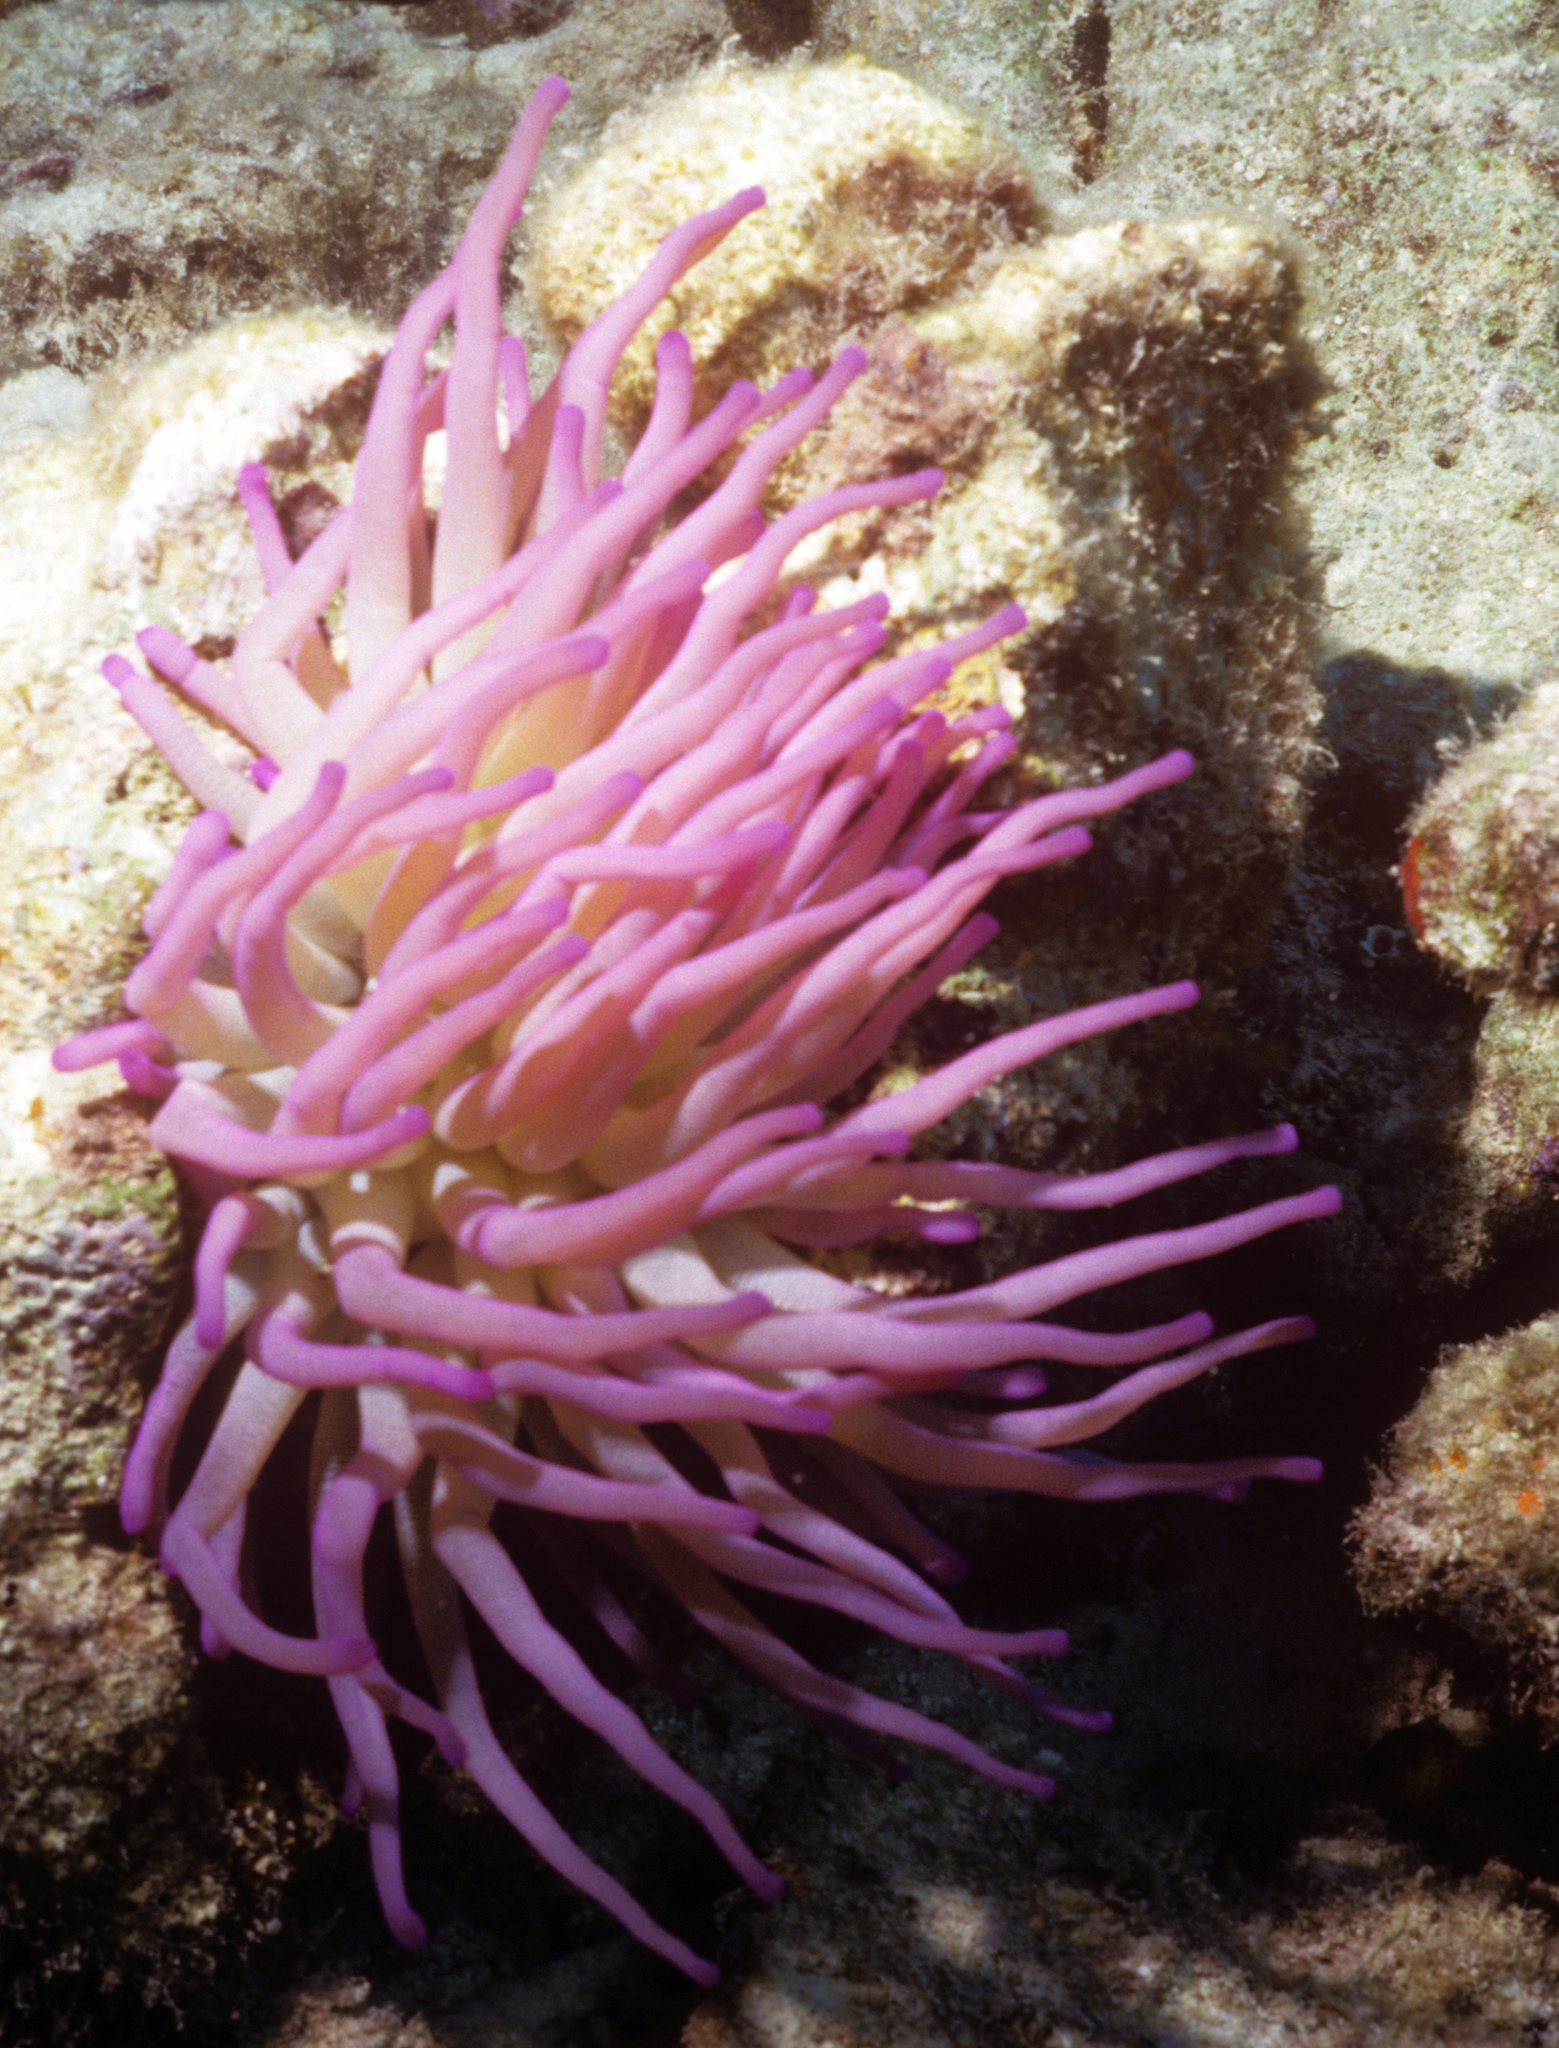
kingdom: Animalia
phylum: Cnidaria
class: Anthozoa
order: Actiniaria
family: Actiniidae
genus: Condylactis
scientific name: Condylactis gigantea
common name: Giant caribbean anemone
